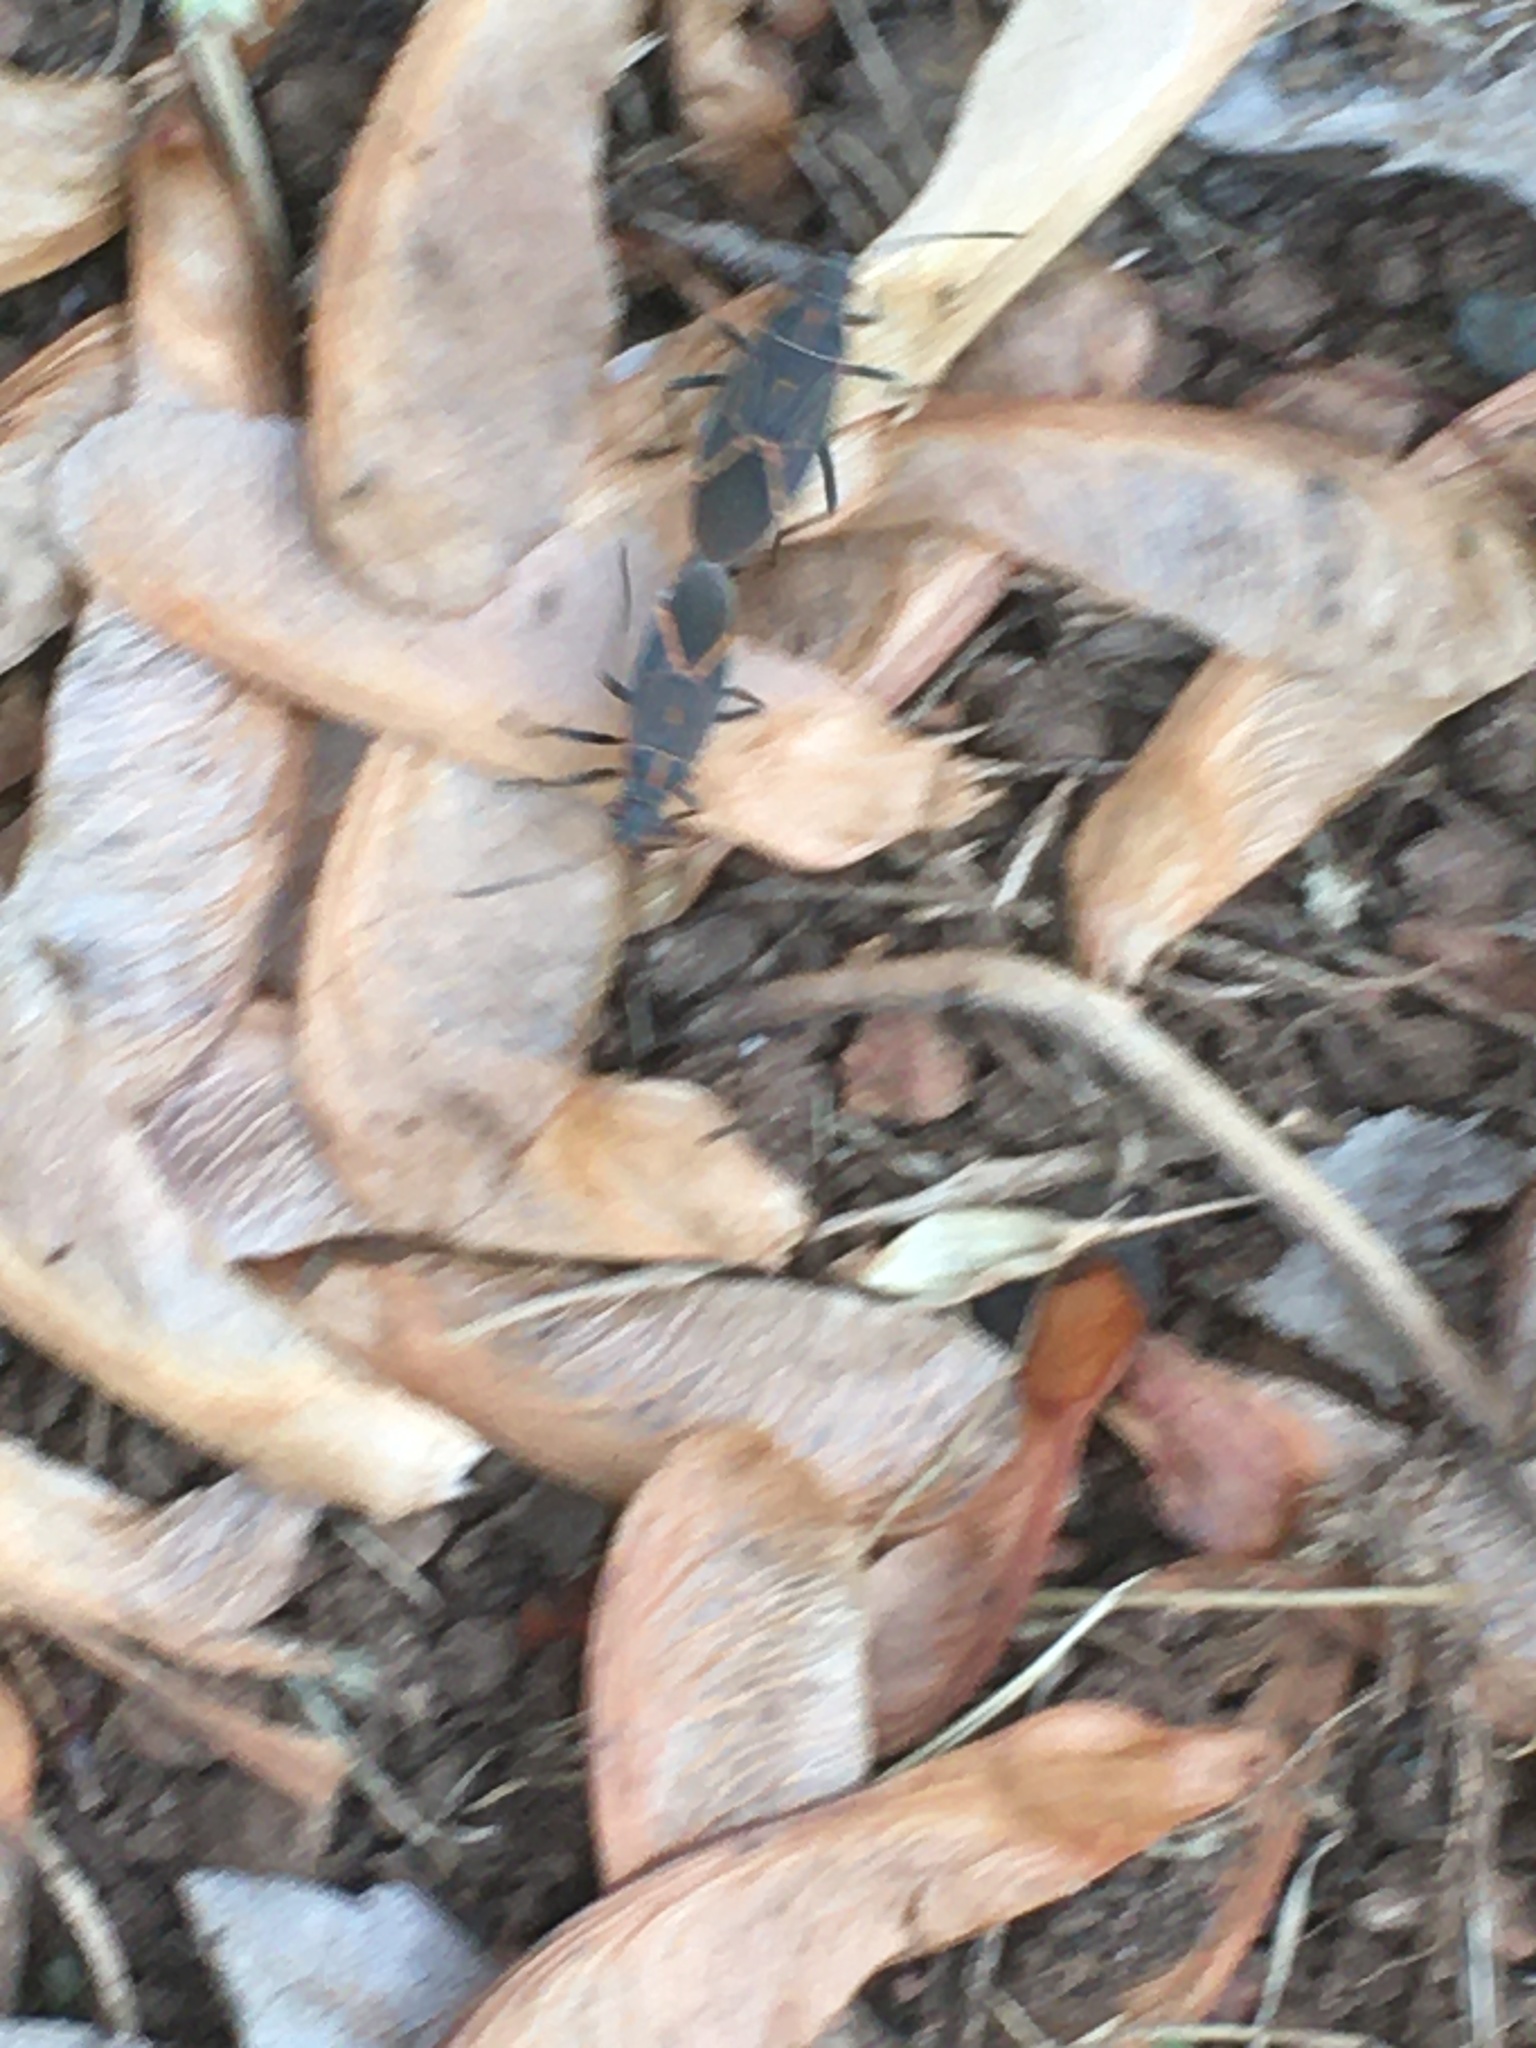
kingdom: Animalia
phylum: Arthropoda
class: Insecta
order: Hemiptera
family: Rhopalidae
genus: Boisea
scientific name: Boisea rubrolineata
